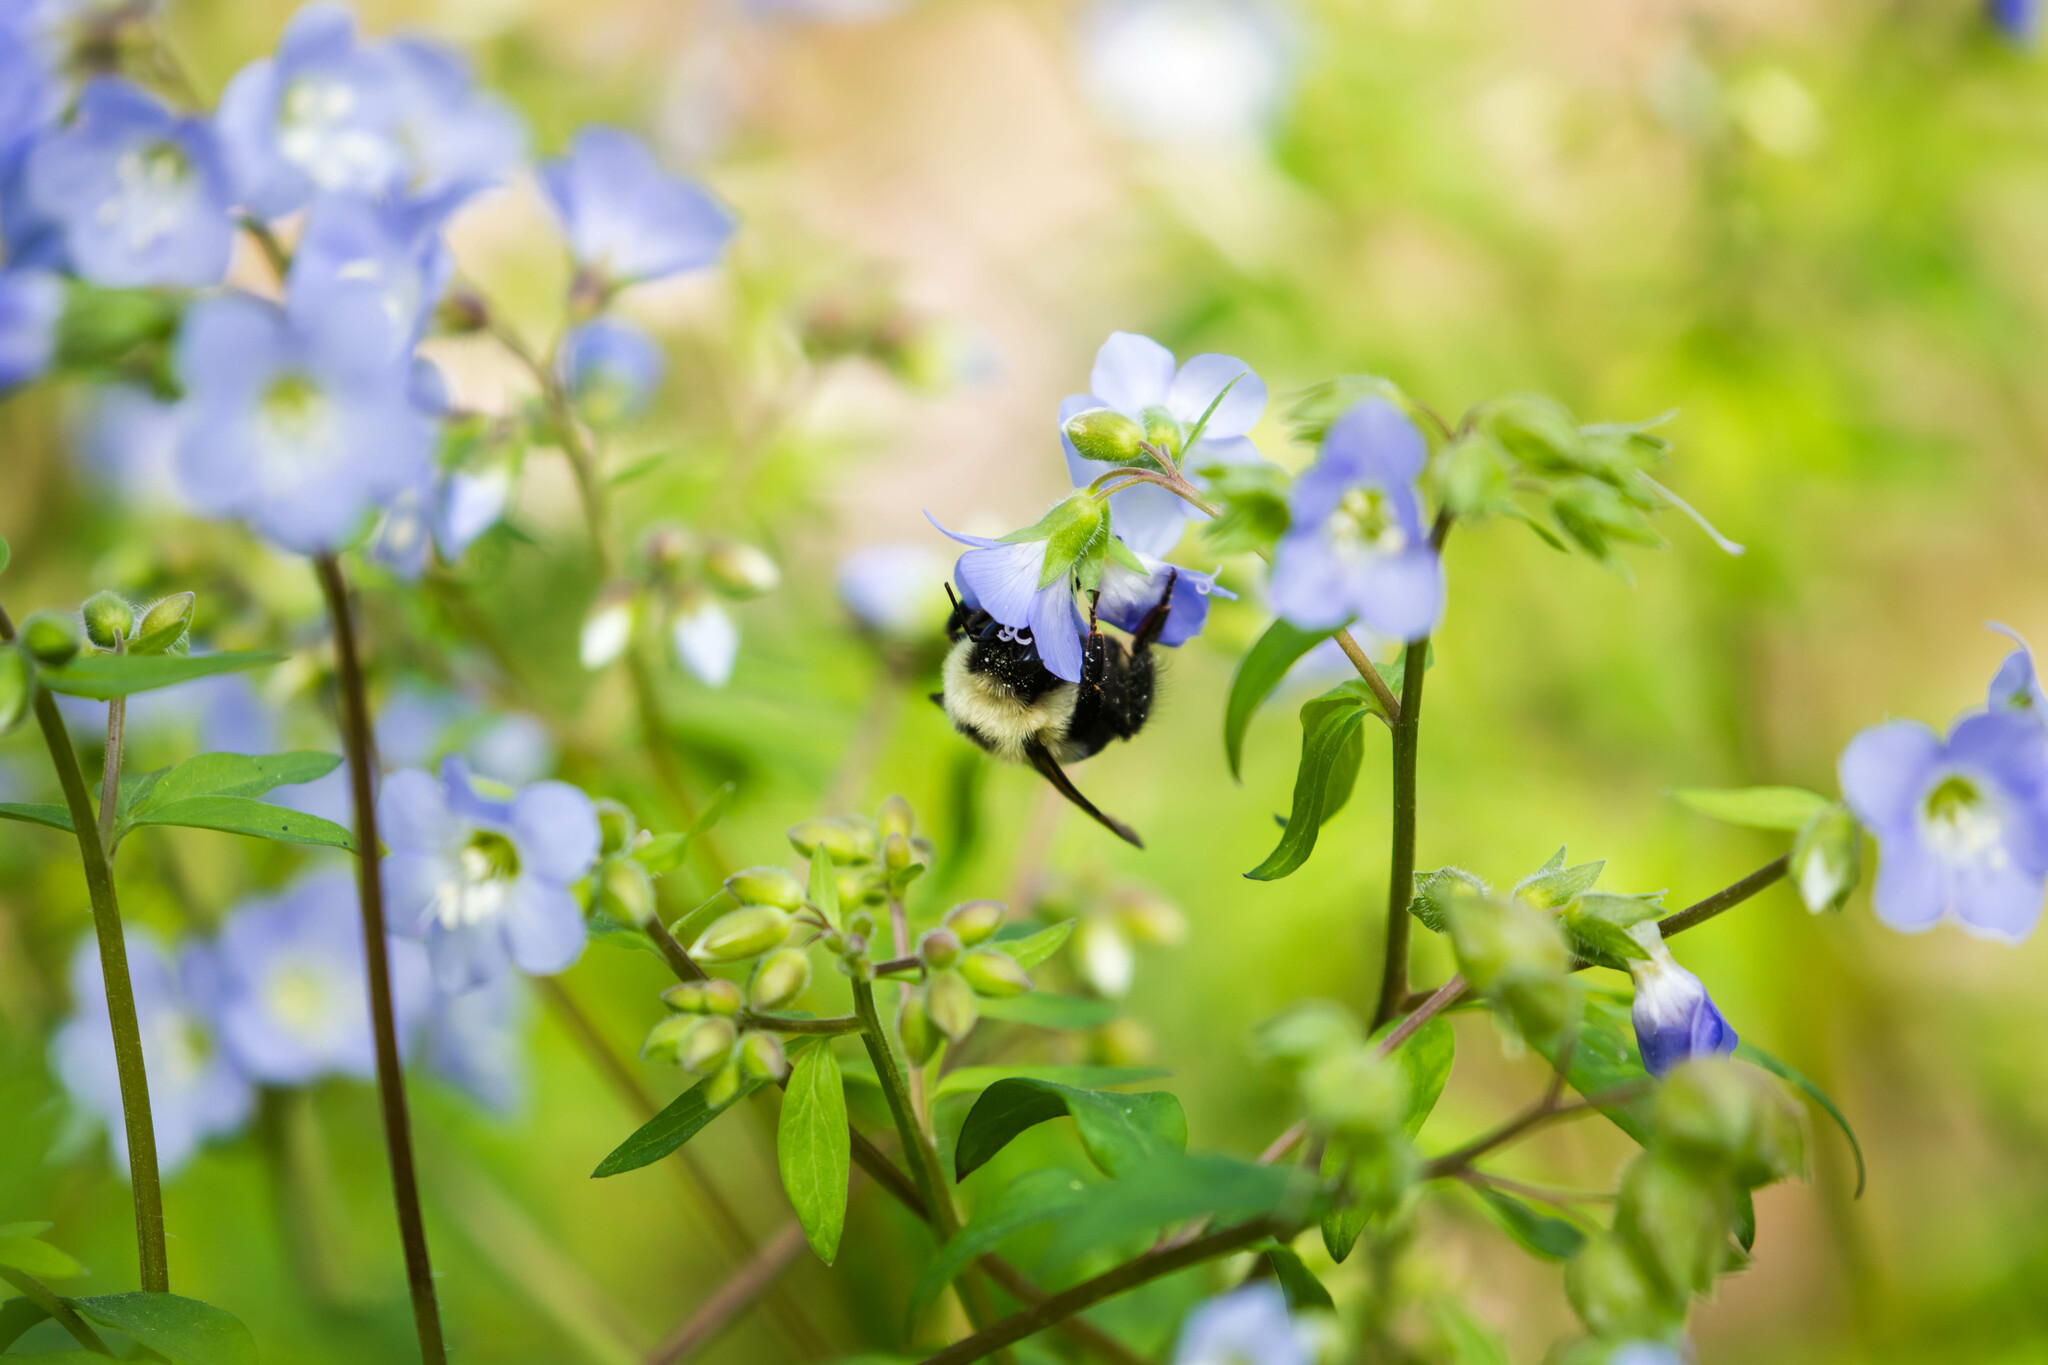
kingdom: Animalia
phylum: Arthropoda
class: Insecta
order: Hymenoptera
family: Apidae
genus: Bombus
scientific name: Bombus bimaculatus
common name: Two-spotted bumble bee
